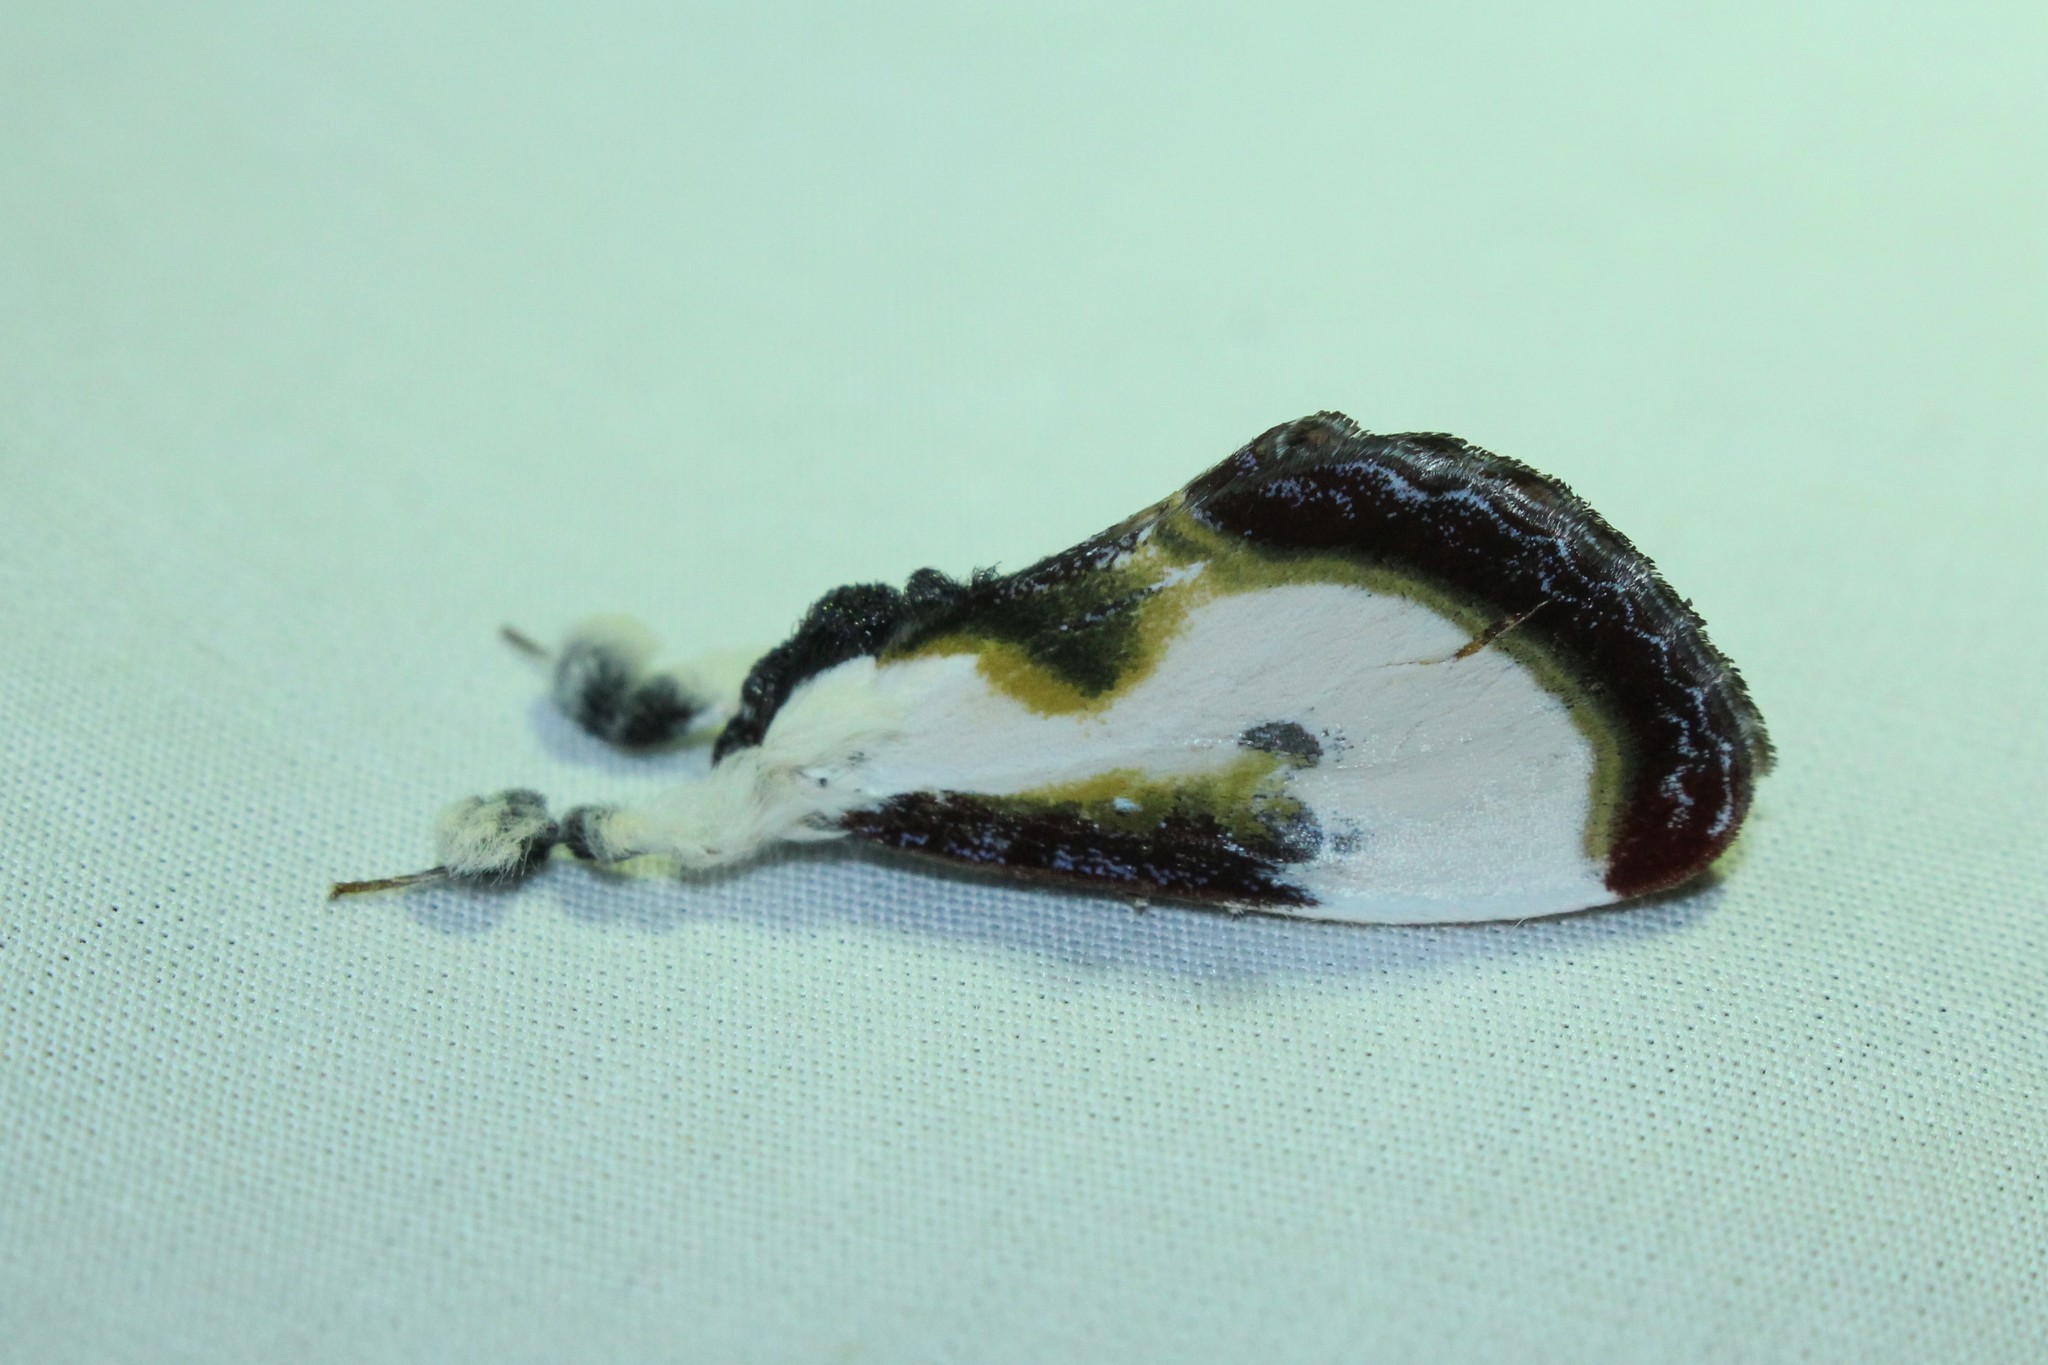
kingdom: Animalia
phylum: Arthropoda
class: Insecta
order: Lepidoptera
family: Noctuidae
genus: Eudryas
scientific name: Eudryas grata
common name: Beautiful wood-nymph
